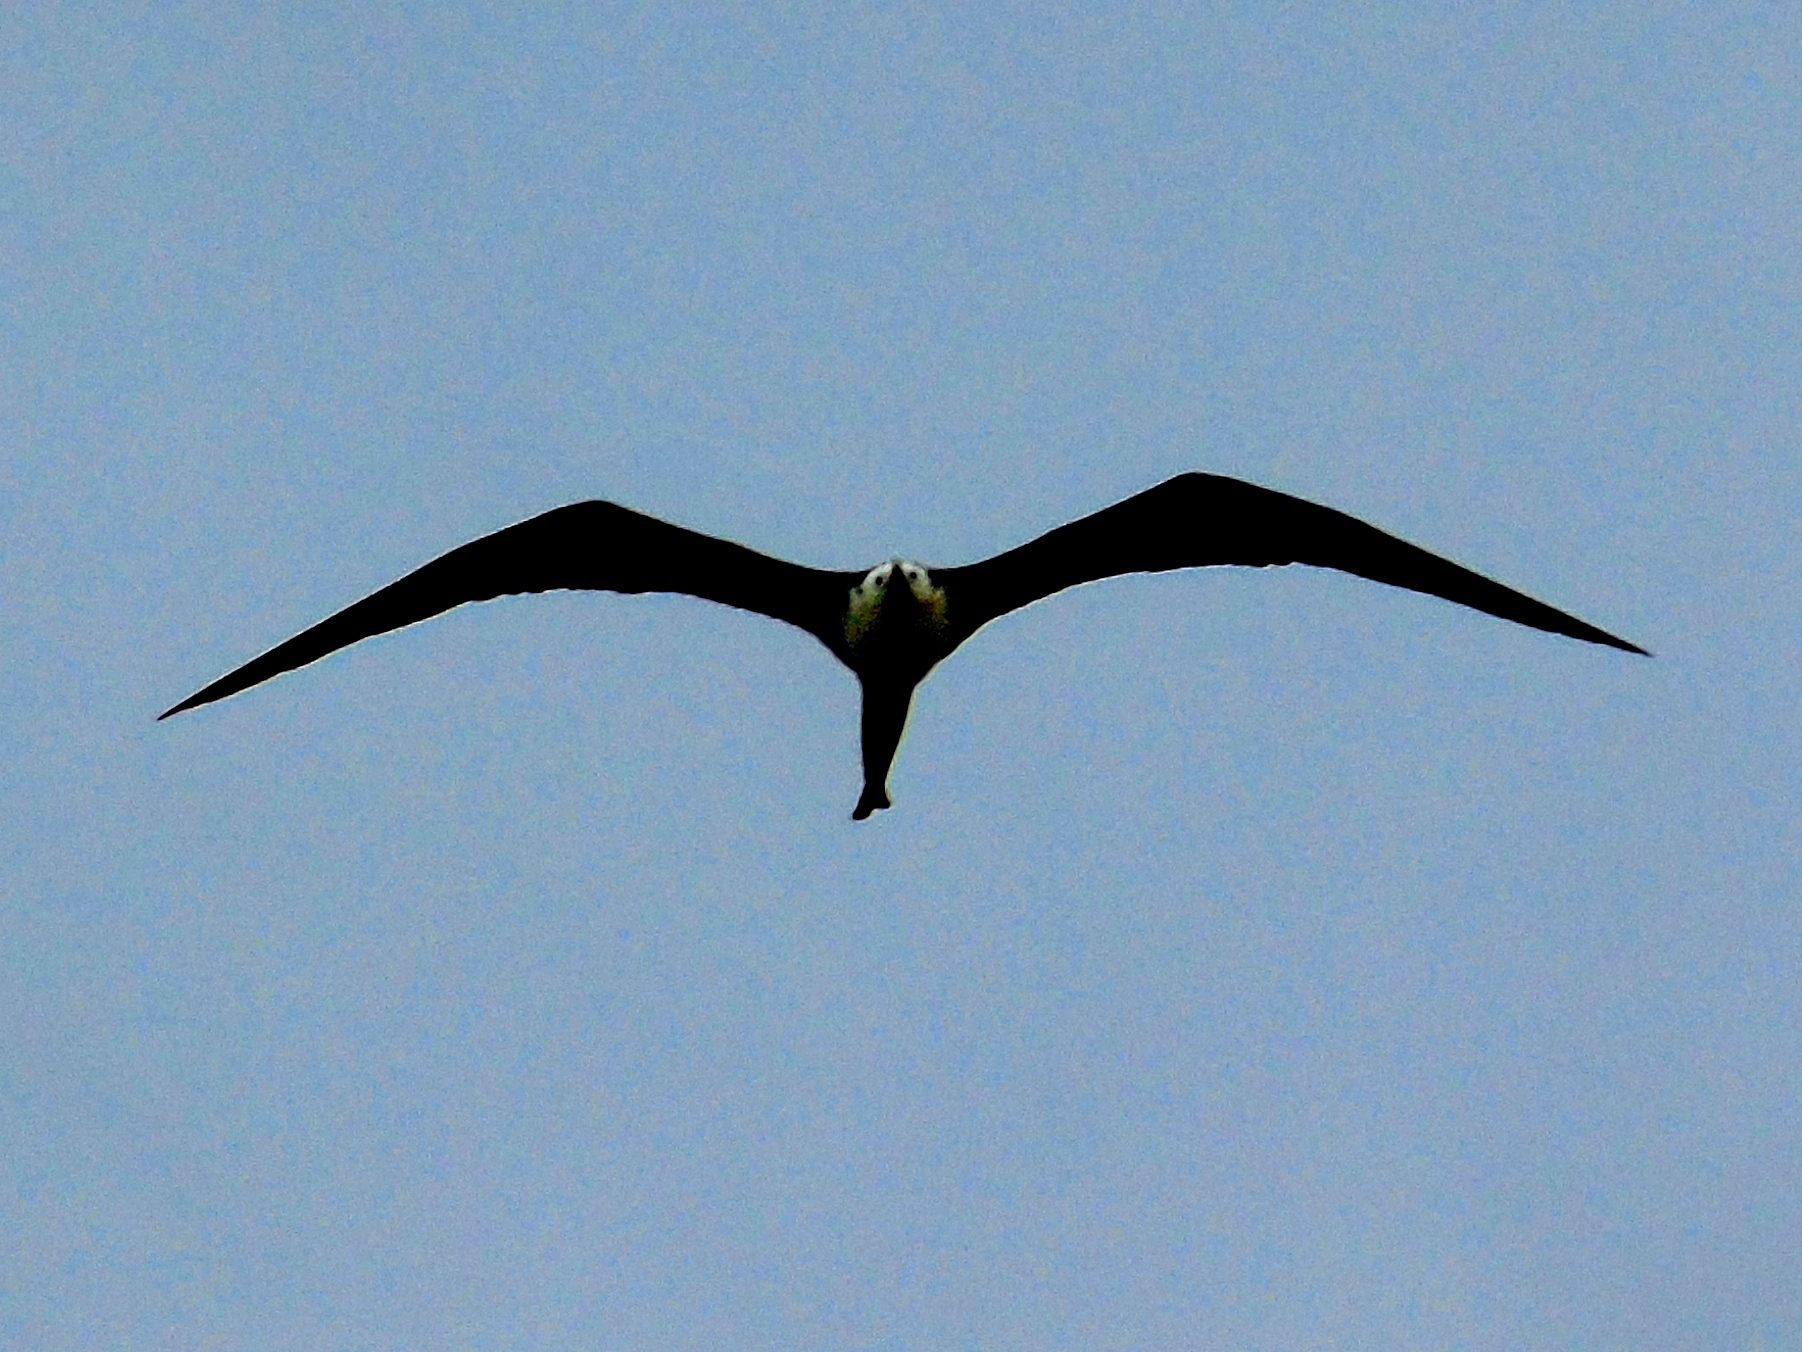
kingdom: Animalia
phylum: Chordata
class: Aves
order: Suliformes
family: Fregatidae
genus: Fregata
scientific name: Fregata magnificens
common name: Magnificent frigatebird
